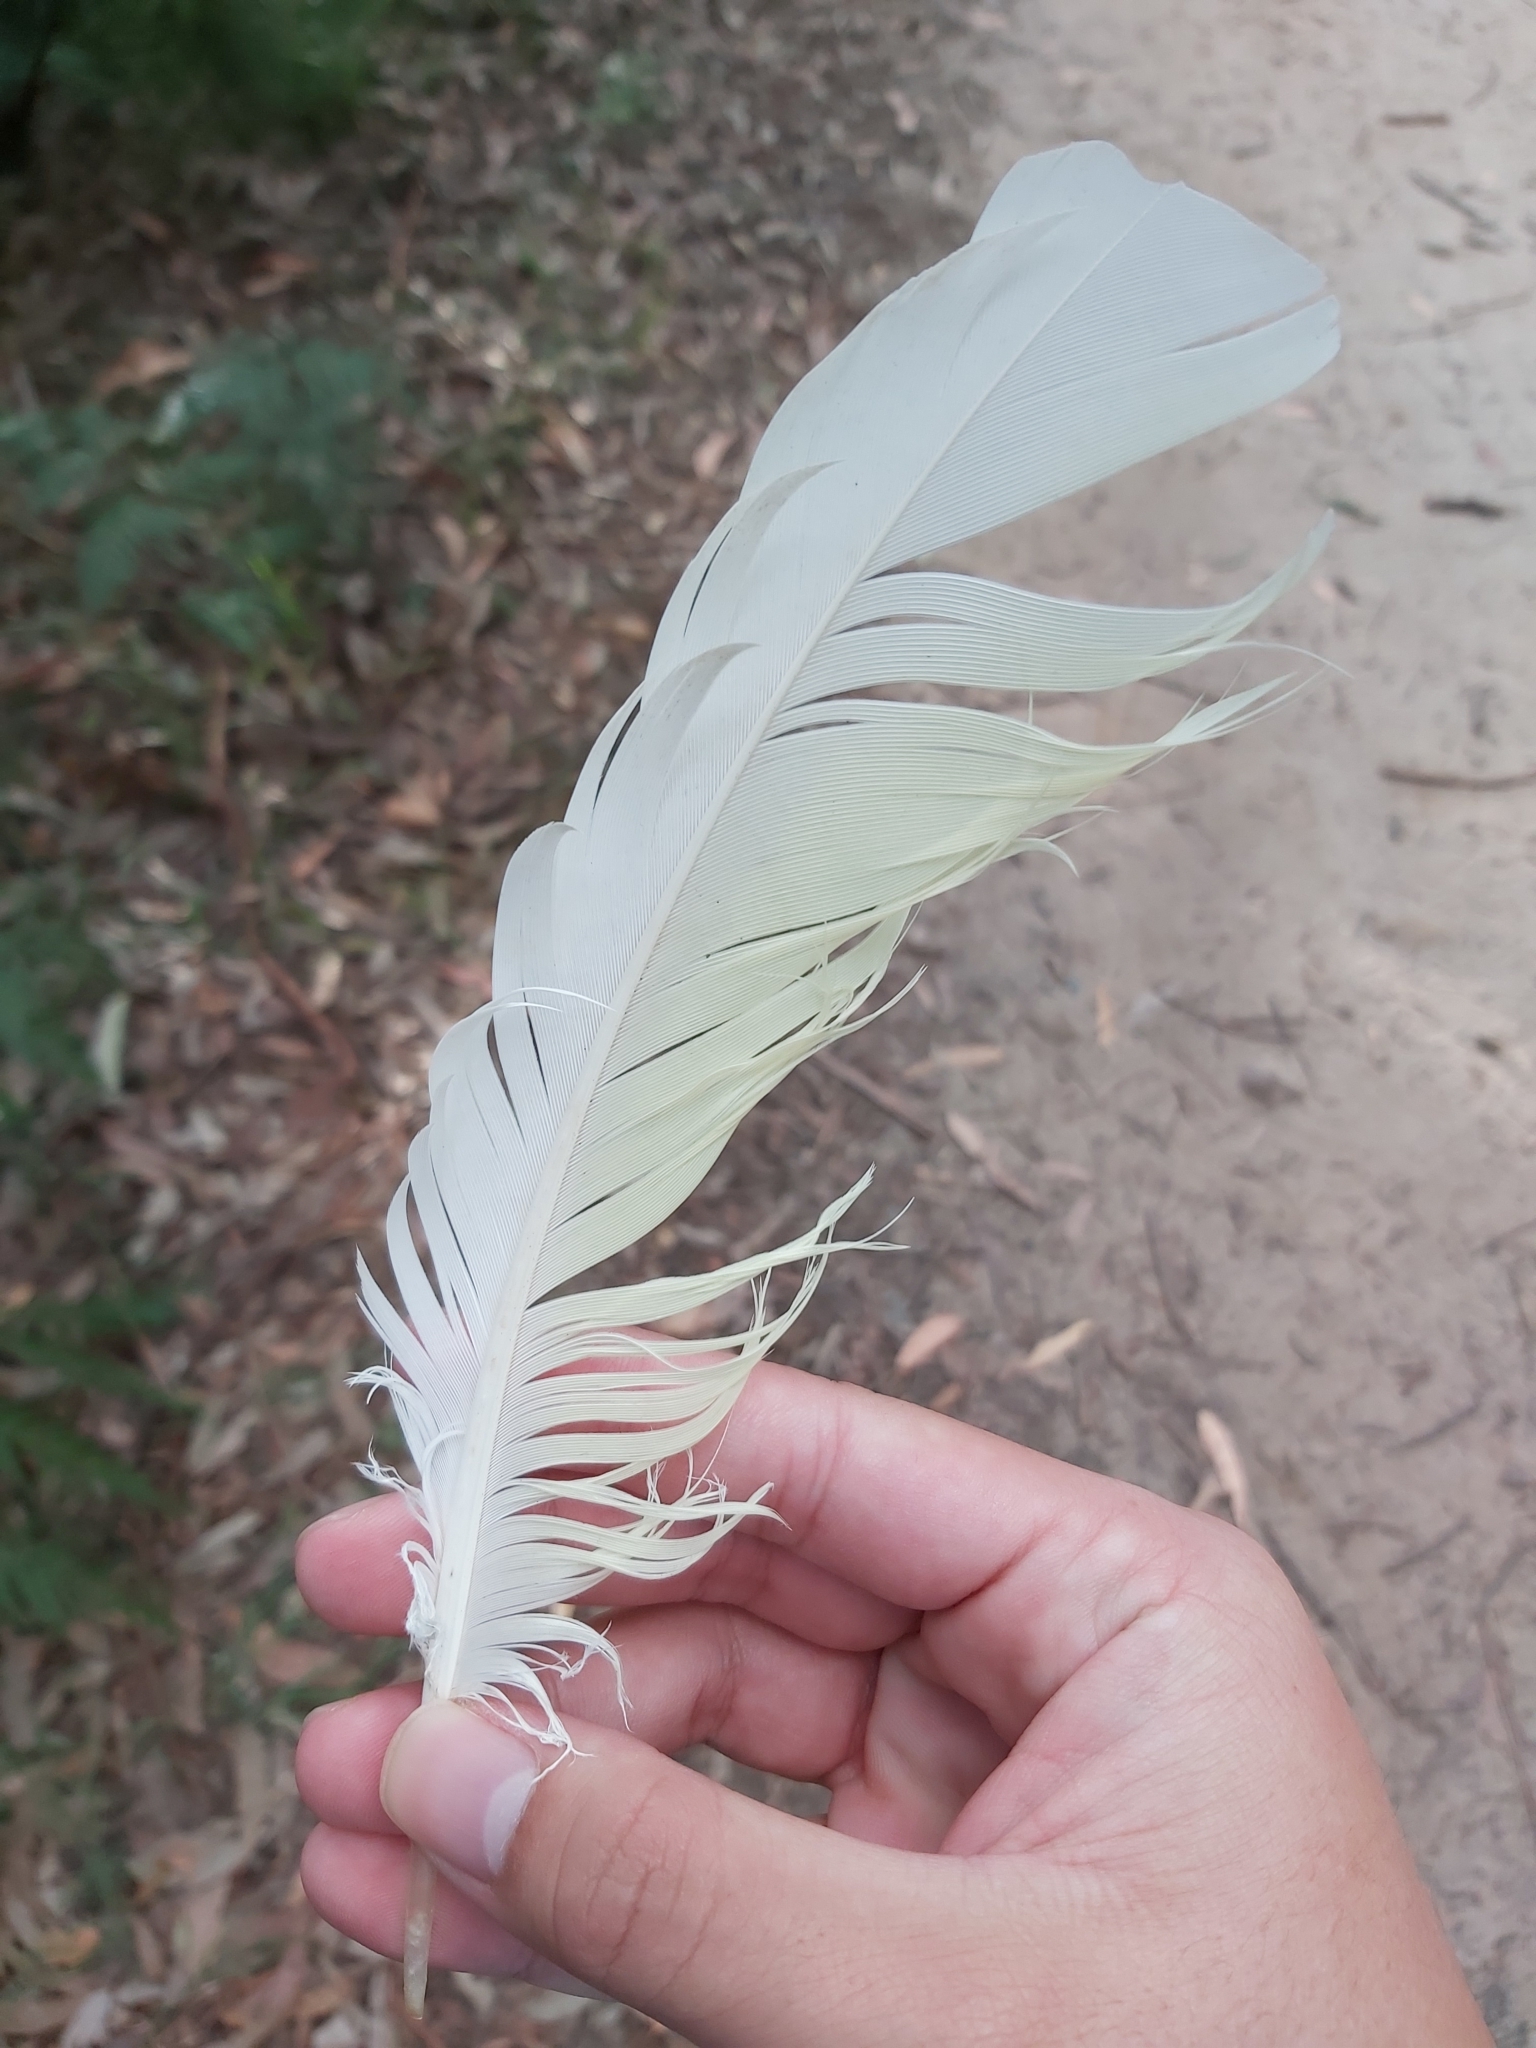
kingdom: Animalia
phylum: Chordata
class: Aves
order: Psittaciformes
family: Psittacidae
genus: Cacatua
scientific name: Cacatua galerita
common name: Sulphur-crested cockatoo
